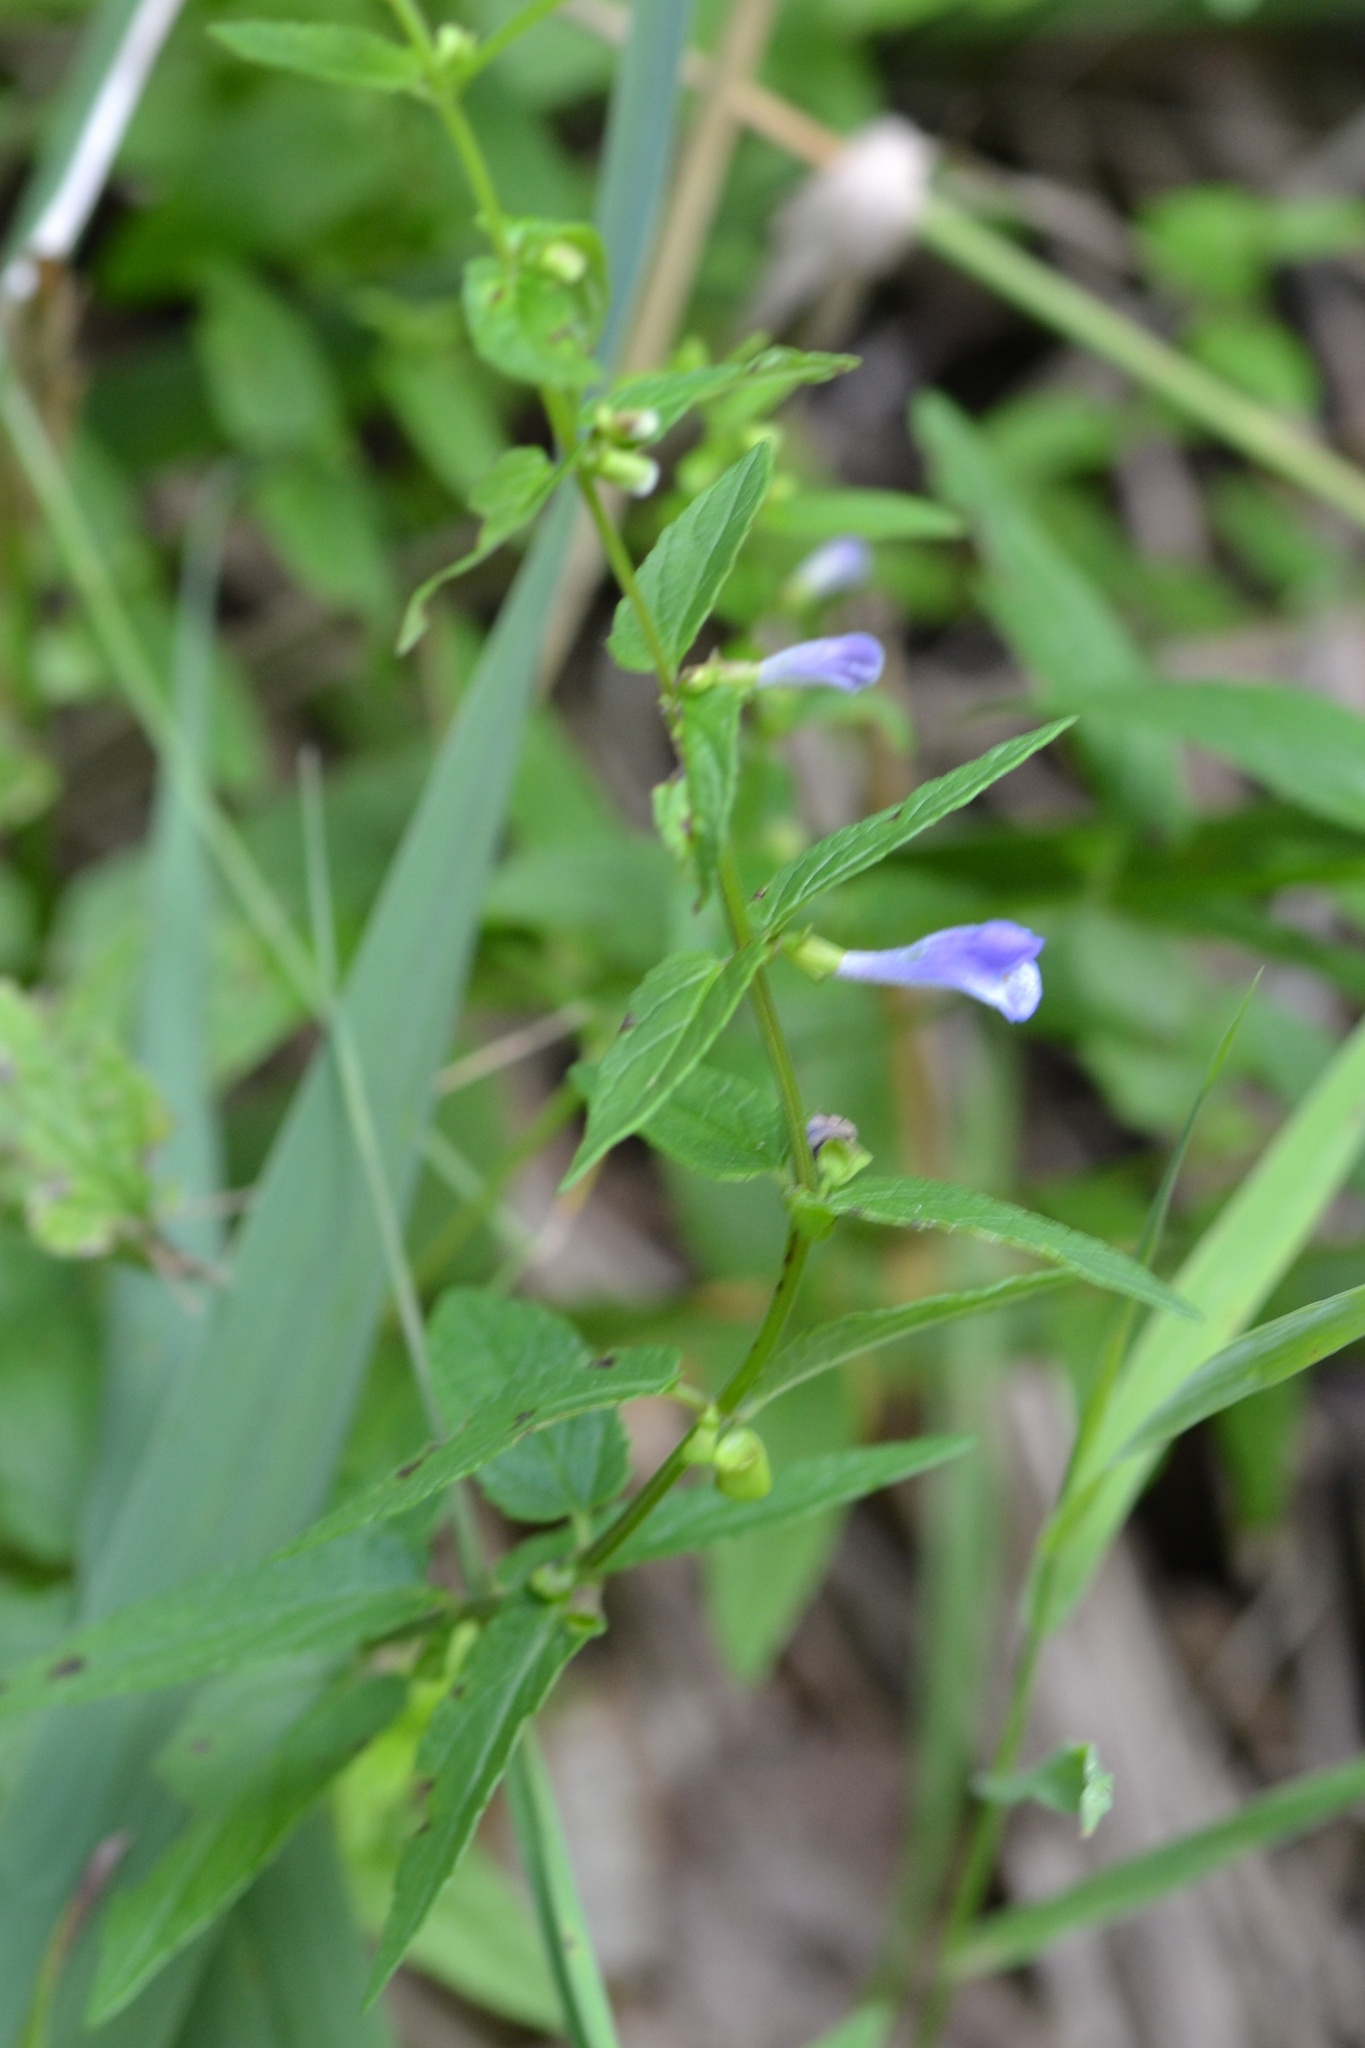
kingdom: Plantae
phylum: Tracheophyta
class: Magnoliopsida
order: Lamiales
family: Lamiaceae
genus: Scutellaria
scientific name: Scutellaria galericulata
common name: Skullcap
